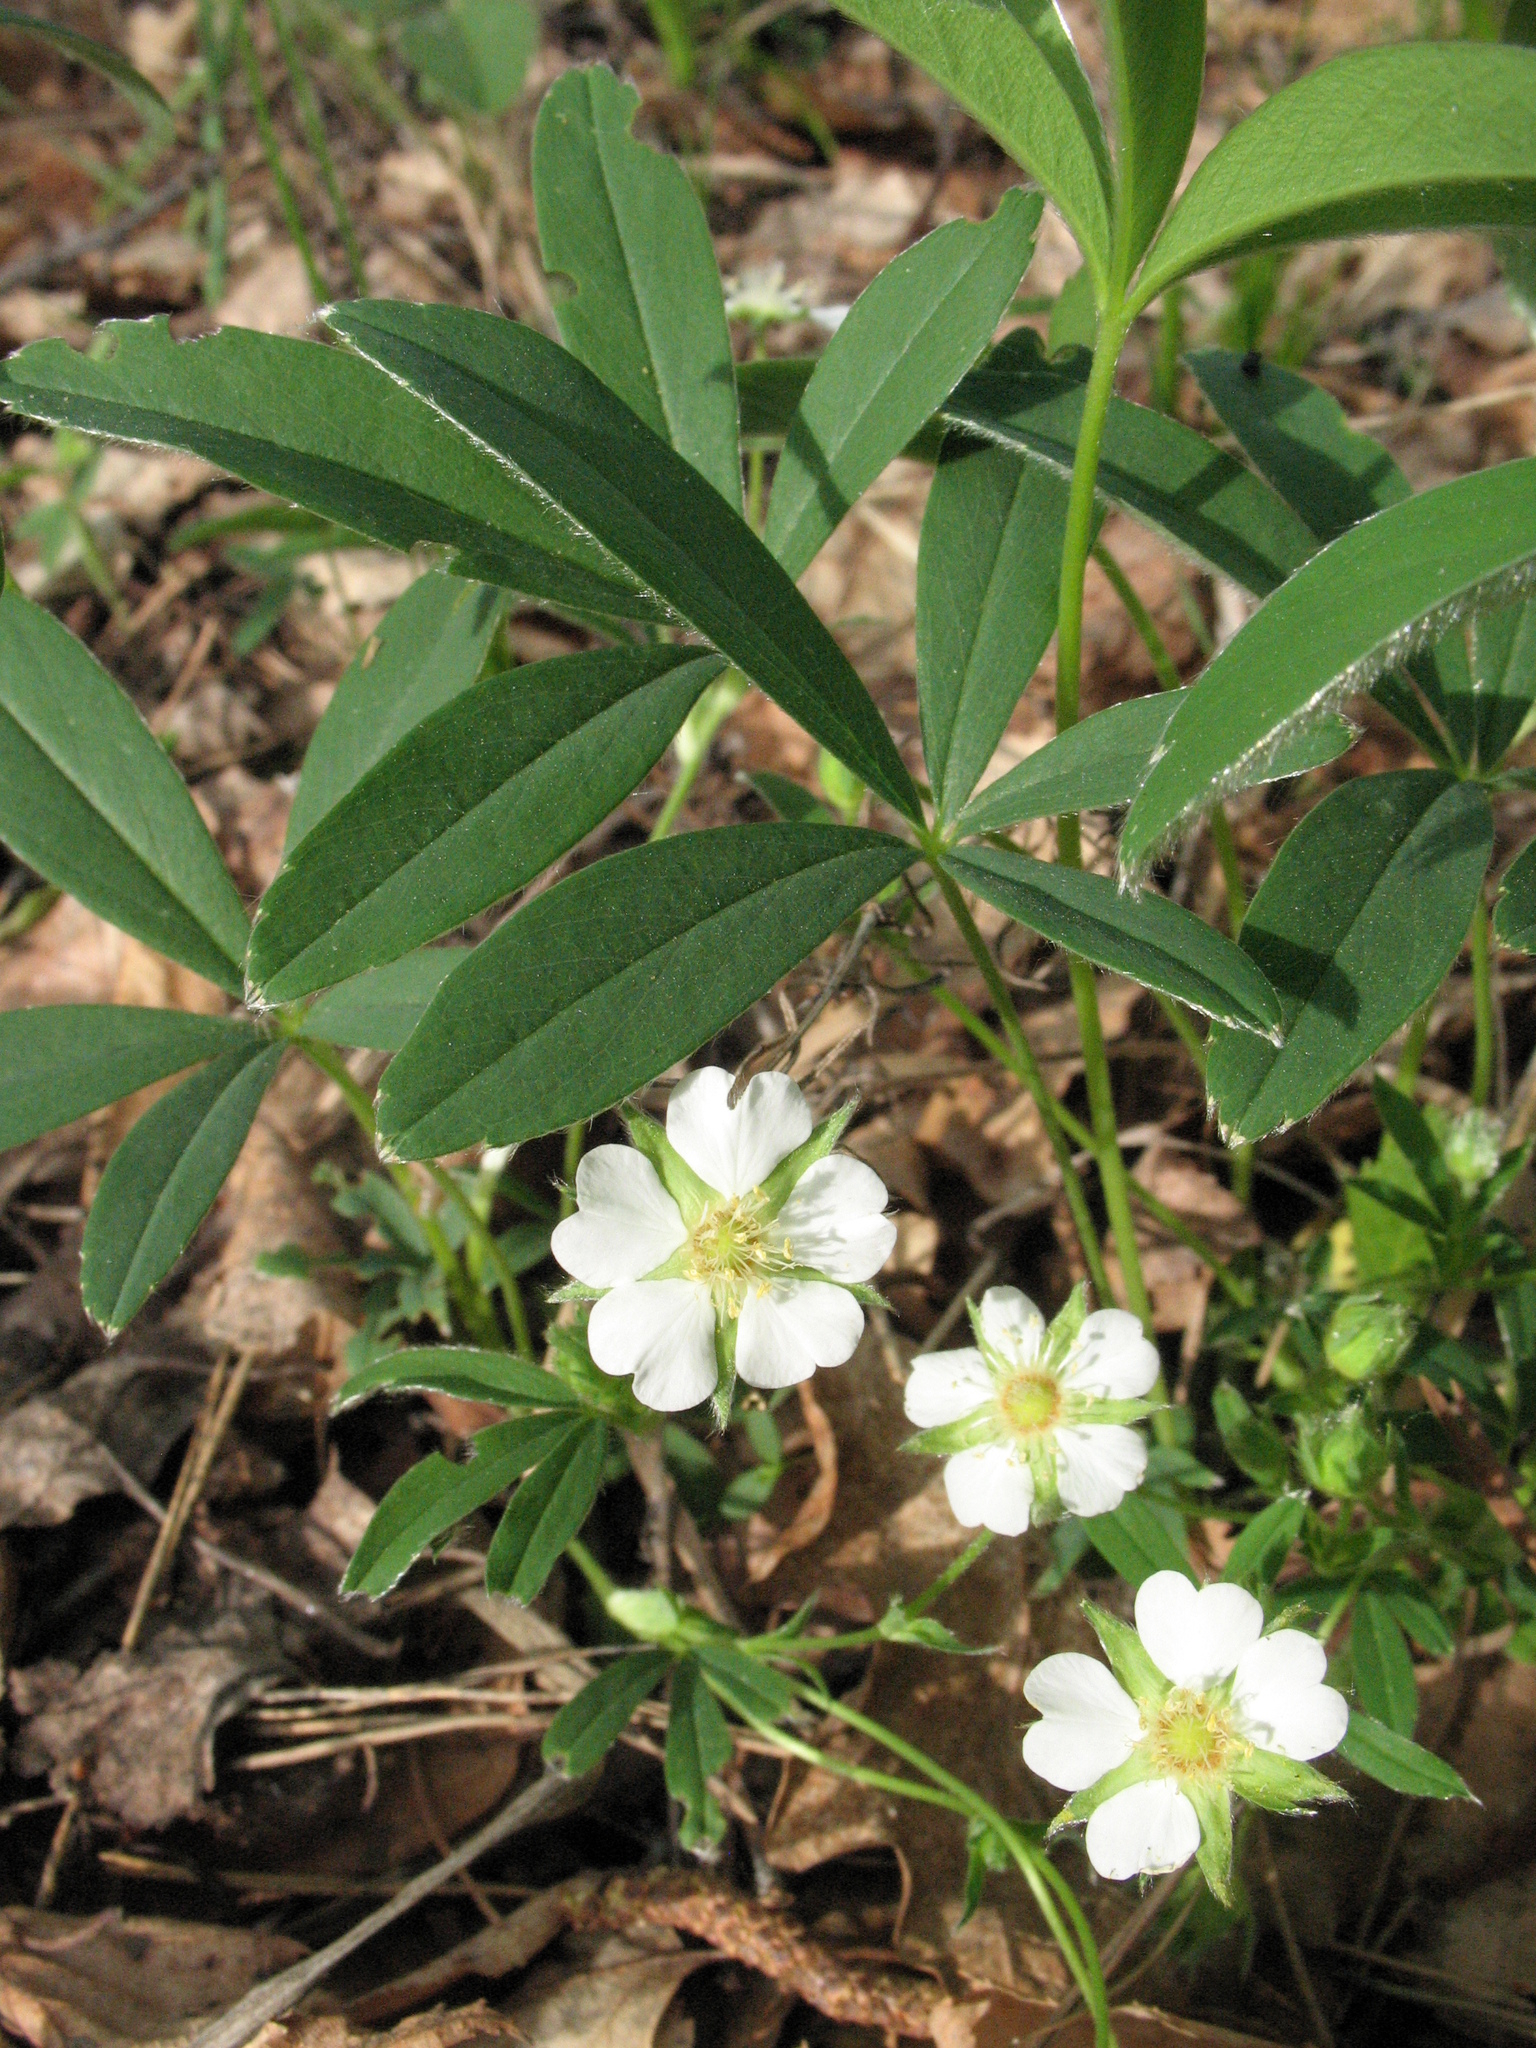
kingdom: Plantae
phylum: Tracheophyta
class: Magnoliopsida
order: Rosales
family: Rosaceae
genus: Potentilla
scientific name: Potentilla alba
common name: White cinquefoil
